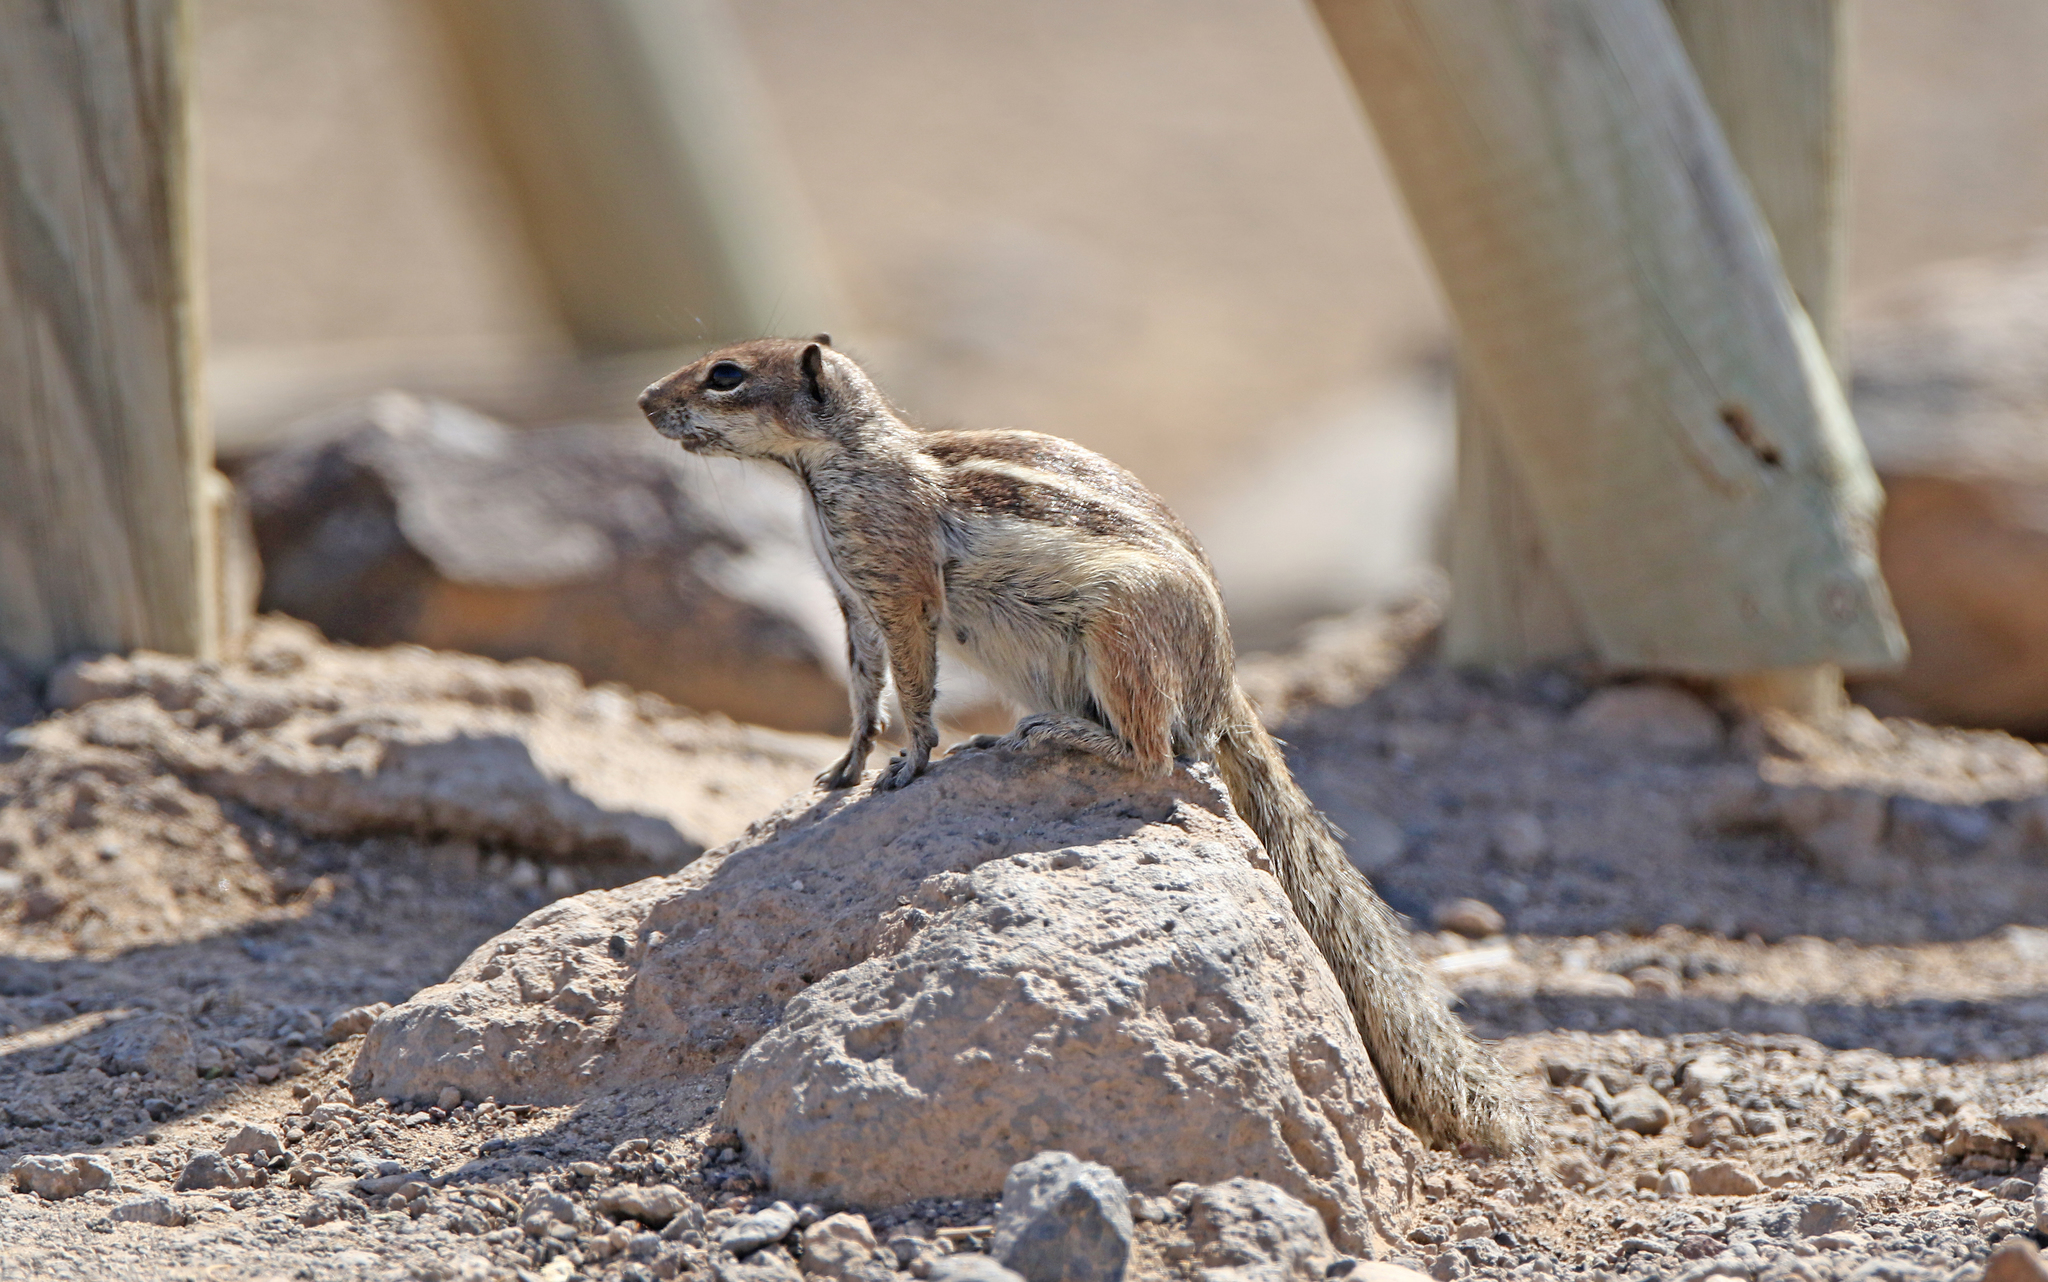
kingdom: Animalia
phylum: Chordata
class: Mammalia
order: Rodentia
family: Sciuridae
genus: Atlantoxerus
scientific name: Atlantoxerus getulus
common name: Barbary ground squirrel
